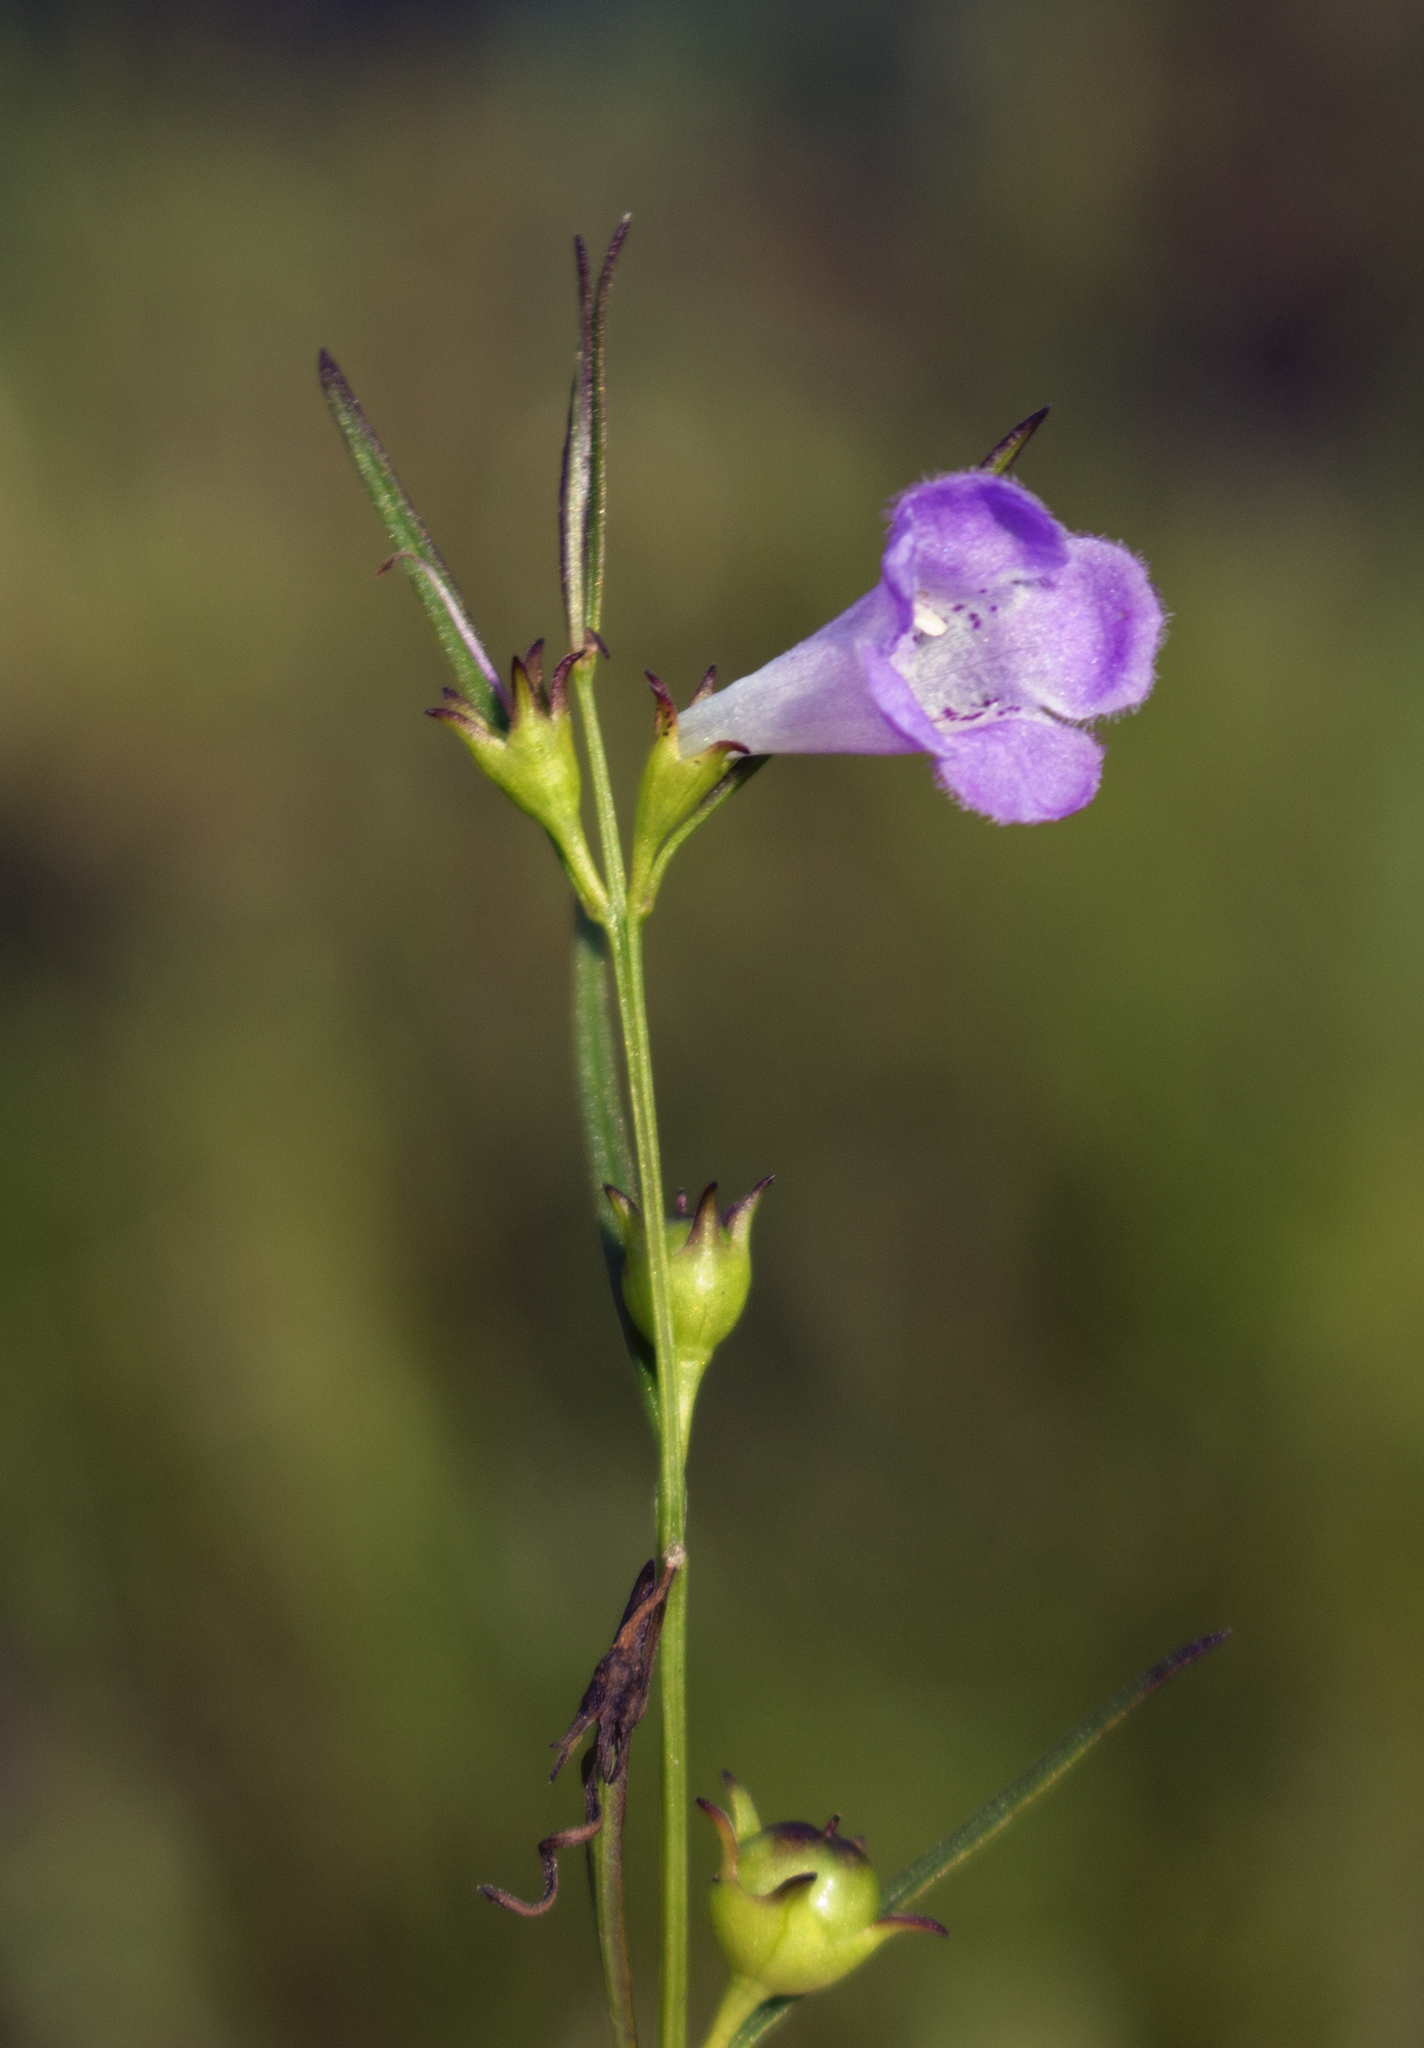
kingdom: Plantae
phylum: Tracheophyta
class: Magnoliopsida
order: Lamiales
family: Orobanchaceae
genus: Agalinis
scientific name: Agalinis purpurea
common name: Purple false foxglove
